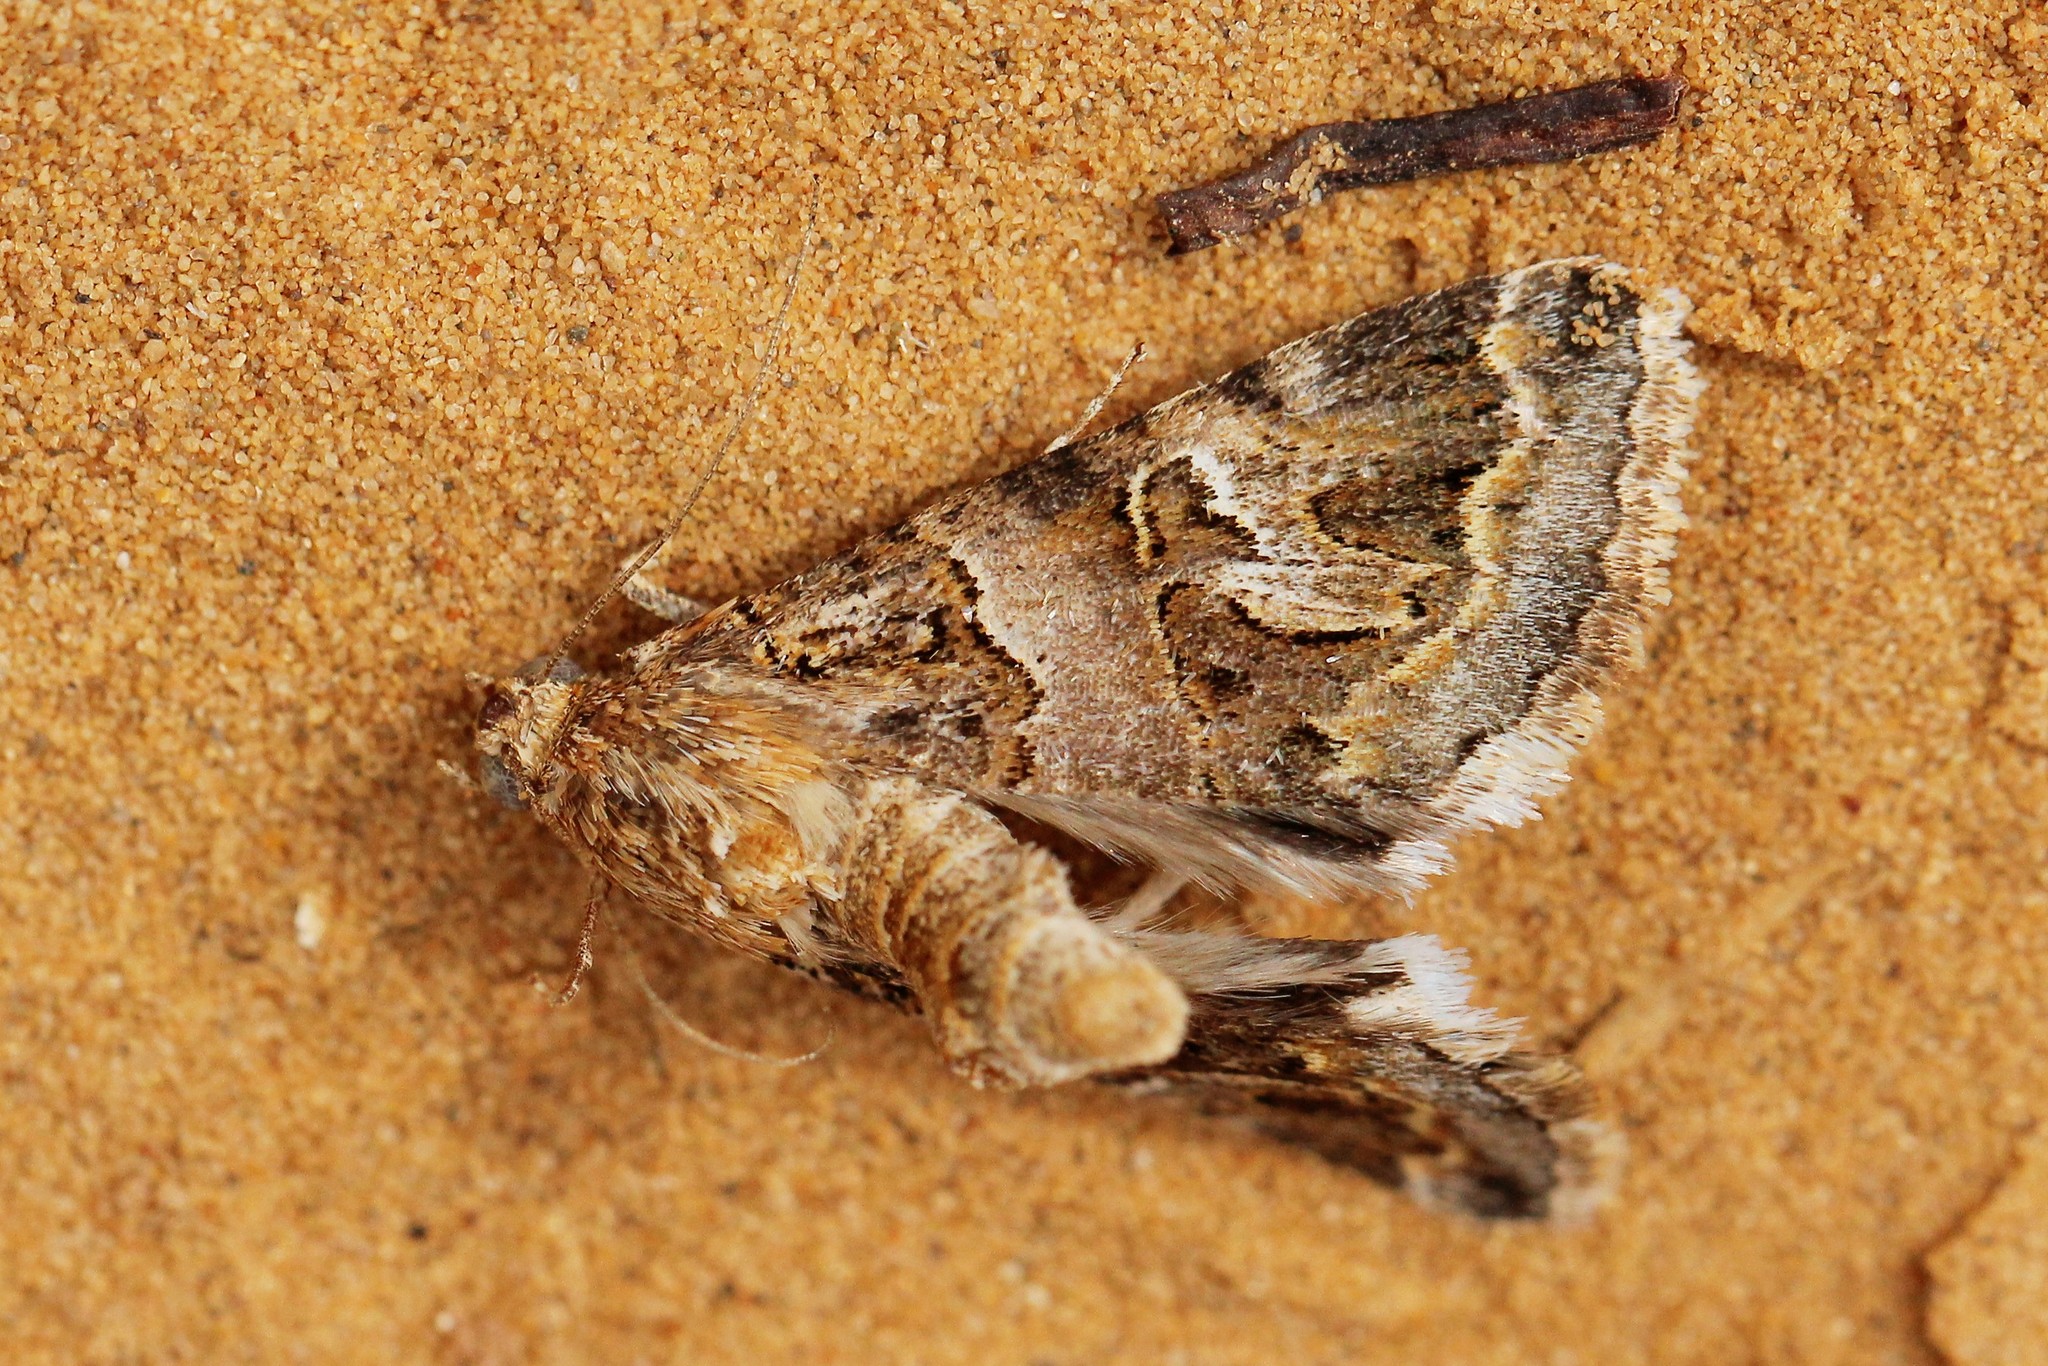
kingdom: Animalia
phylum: Arthropoda
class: Insecta
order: Lepidoptera
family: Erebidae
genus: Drasteria
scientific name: Drasteria picta
